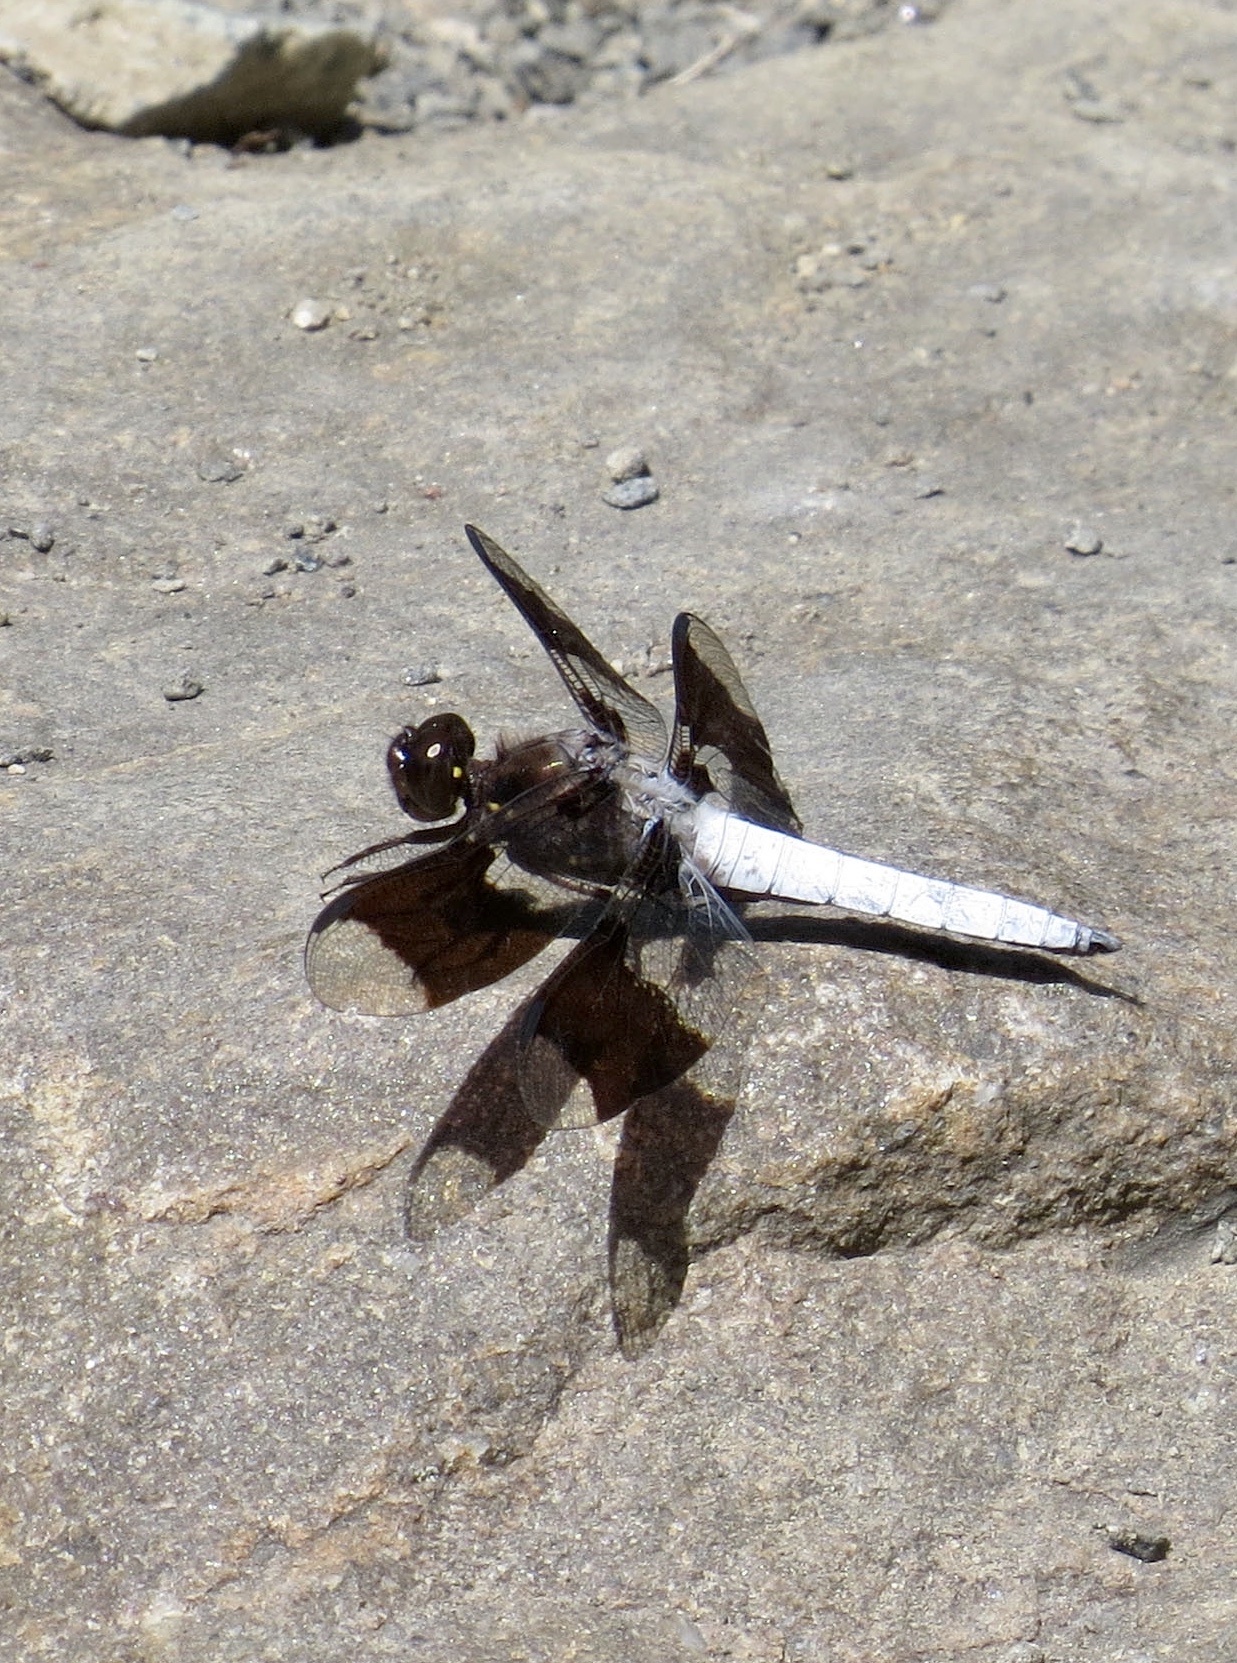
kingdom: Animalia
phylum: Arthropoda
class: Insecta
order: Odonata
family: Libellulidae
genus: Plathemis
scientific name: Plathemis lydia
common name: Common whitetail
